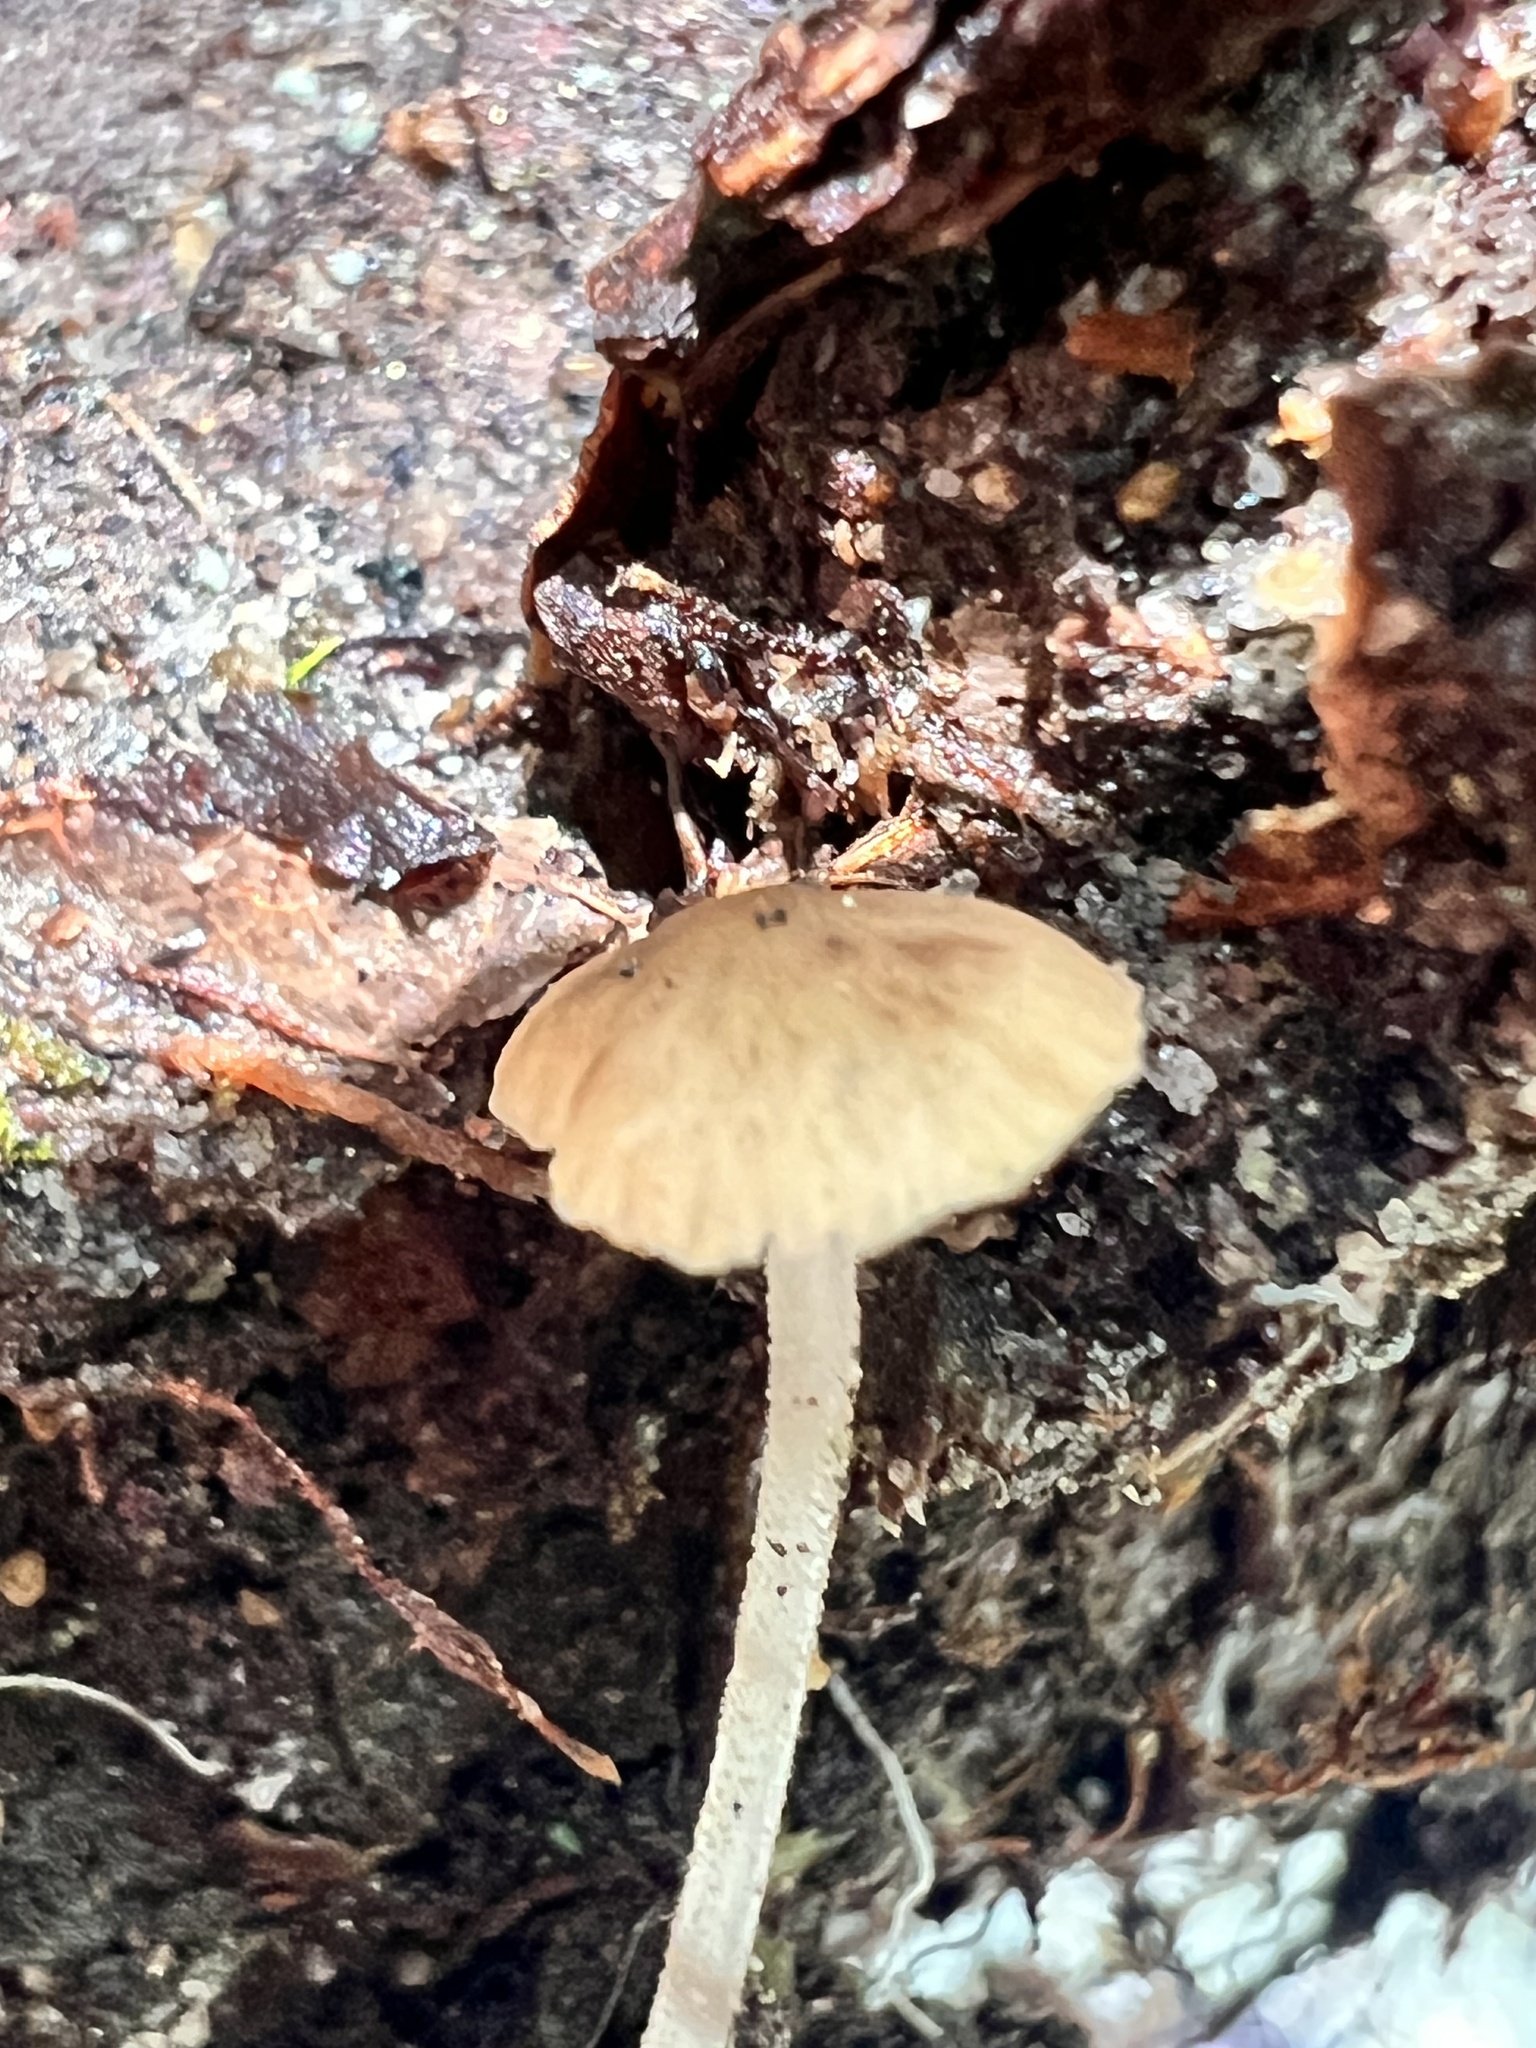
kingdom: Fungi
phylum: Basidiomycota
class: Agaricomycetes
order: Agaricales
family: Porotheleaceae
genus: Pseudohydropus
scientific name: Pseudohydropus parafunebris
